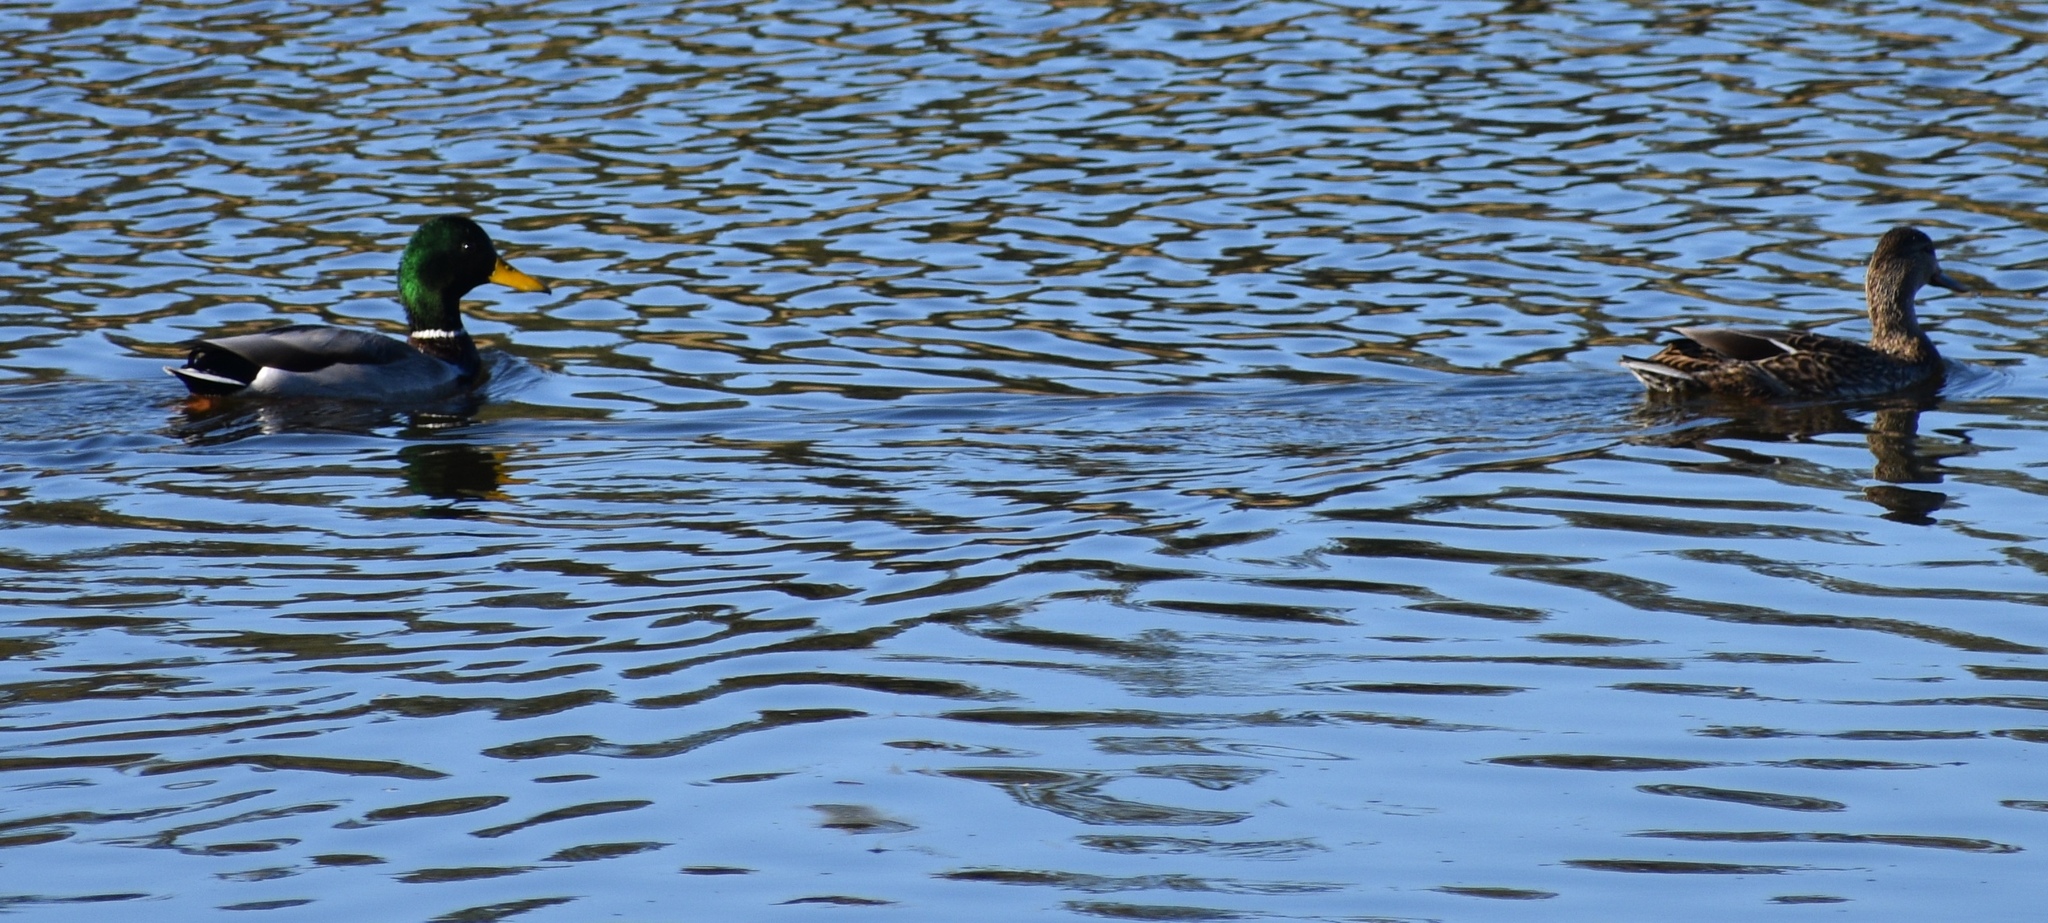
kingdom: Animalia
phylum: Chordata
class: Aves
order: Anseriformes
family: Anatidae
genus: Anas
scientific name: Anas platyrhynchos
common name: Mallard
